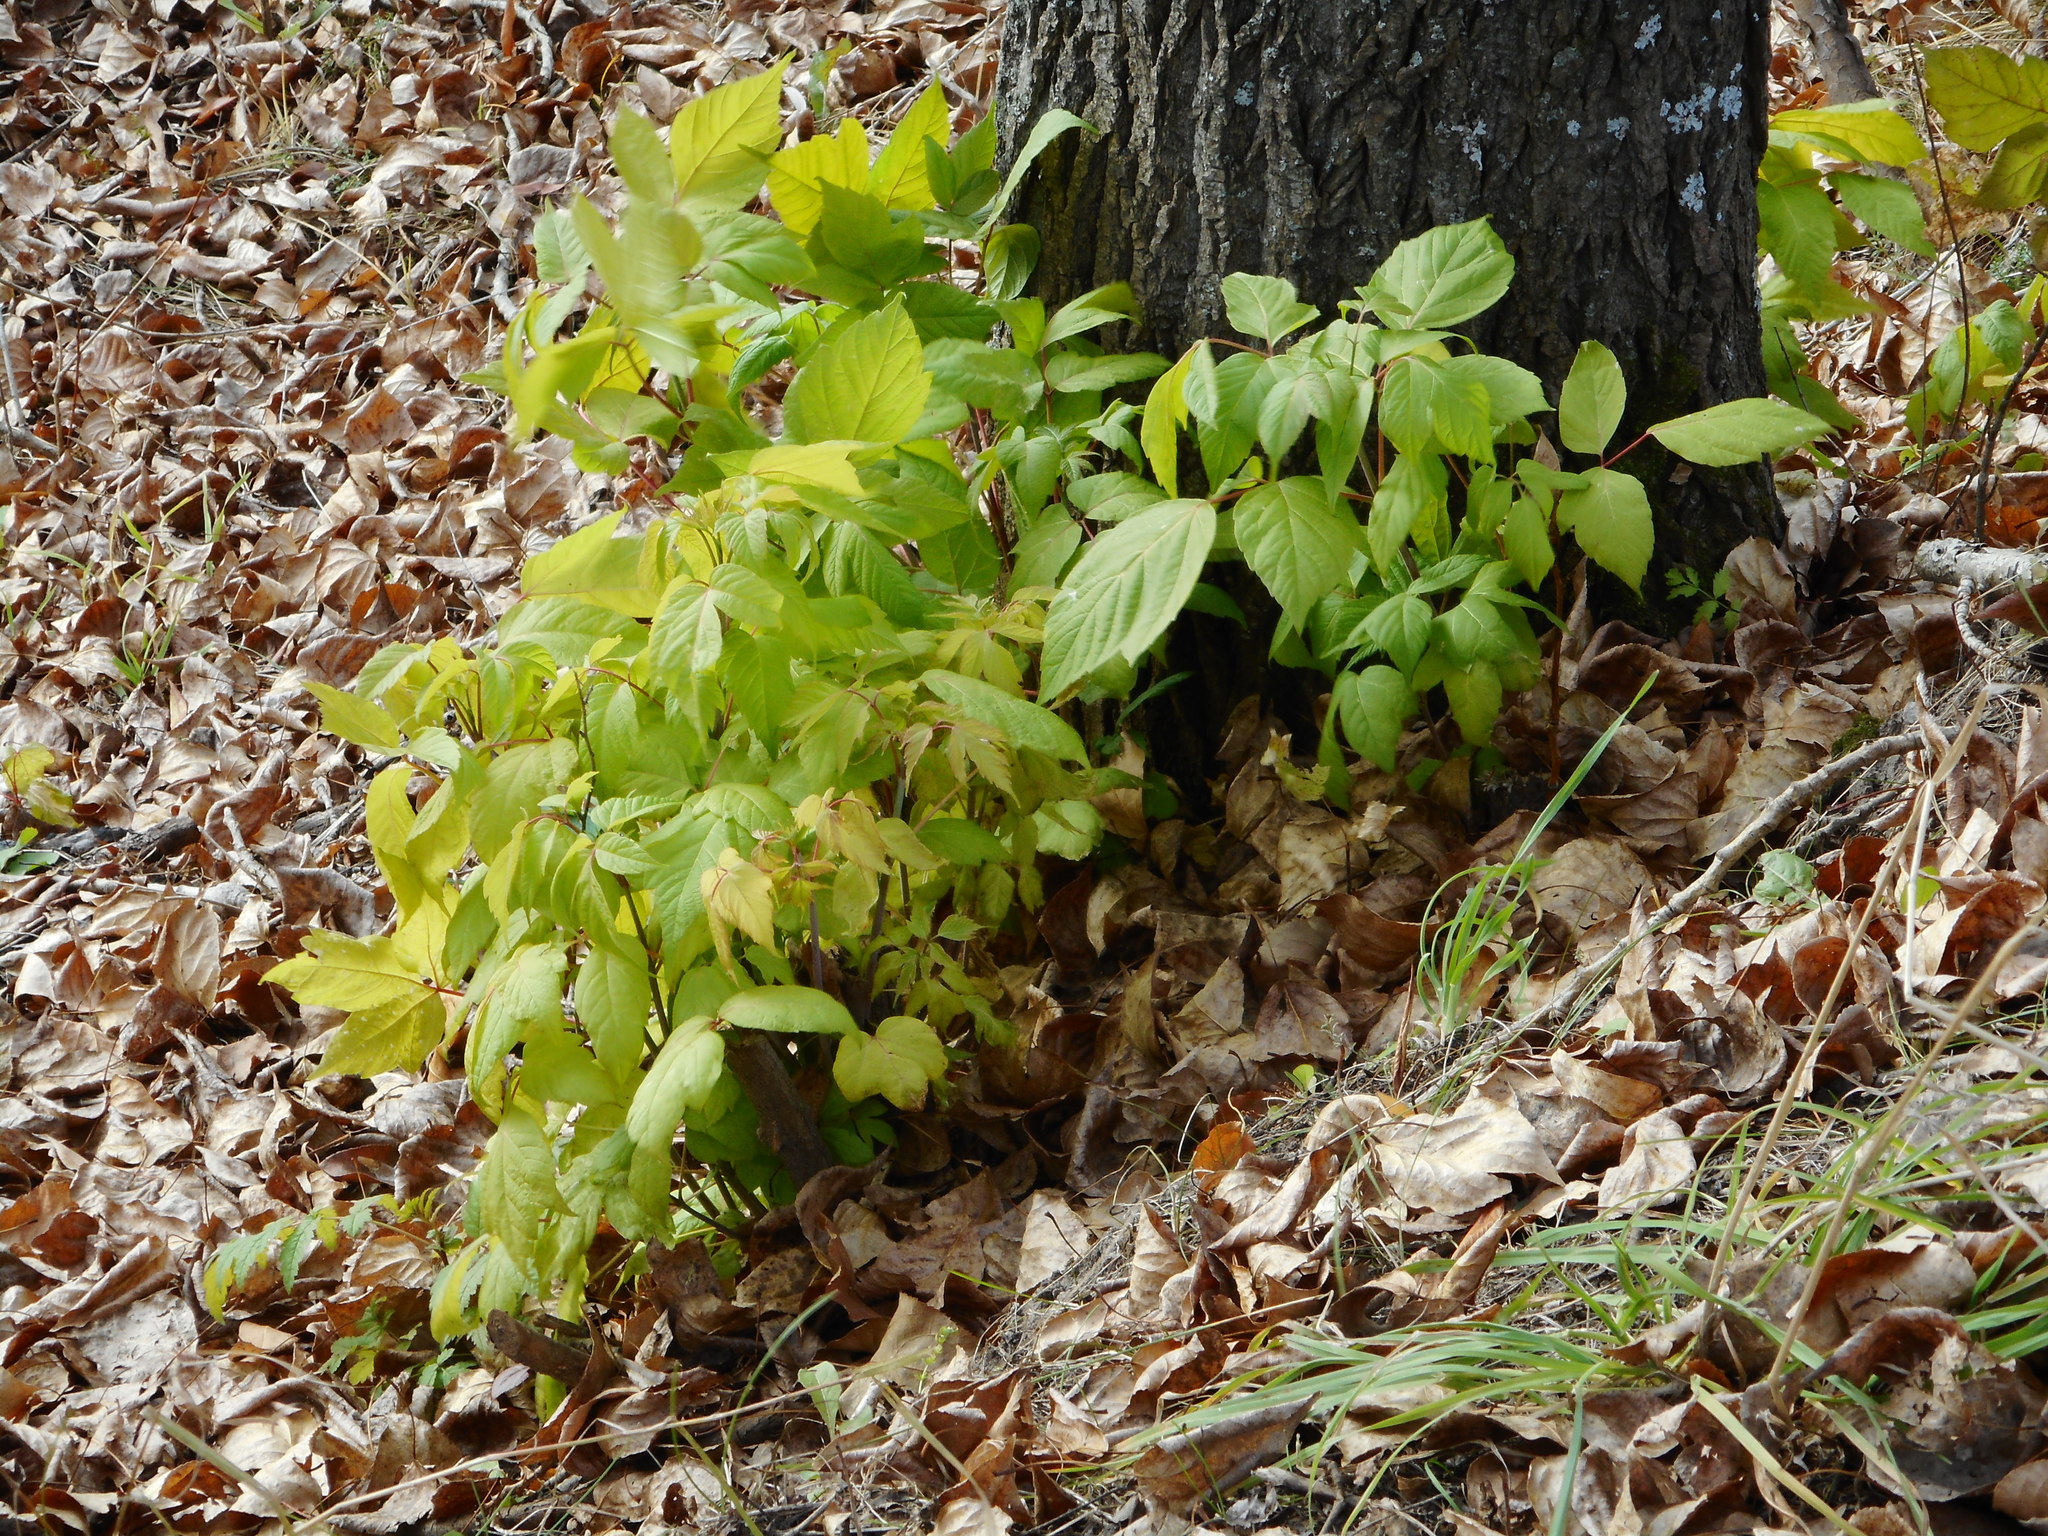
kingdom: Plantae
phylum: Tracheophyta
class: Magnoliopsida
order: Sapindales
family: Sapindaceae
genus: Acer
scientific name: Acer negundo
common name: Ashleaf maple
